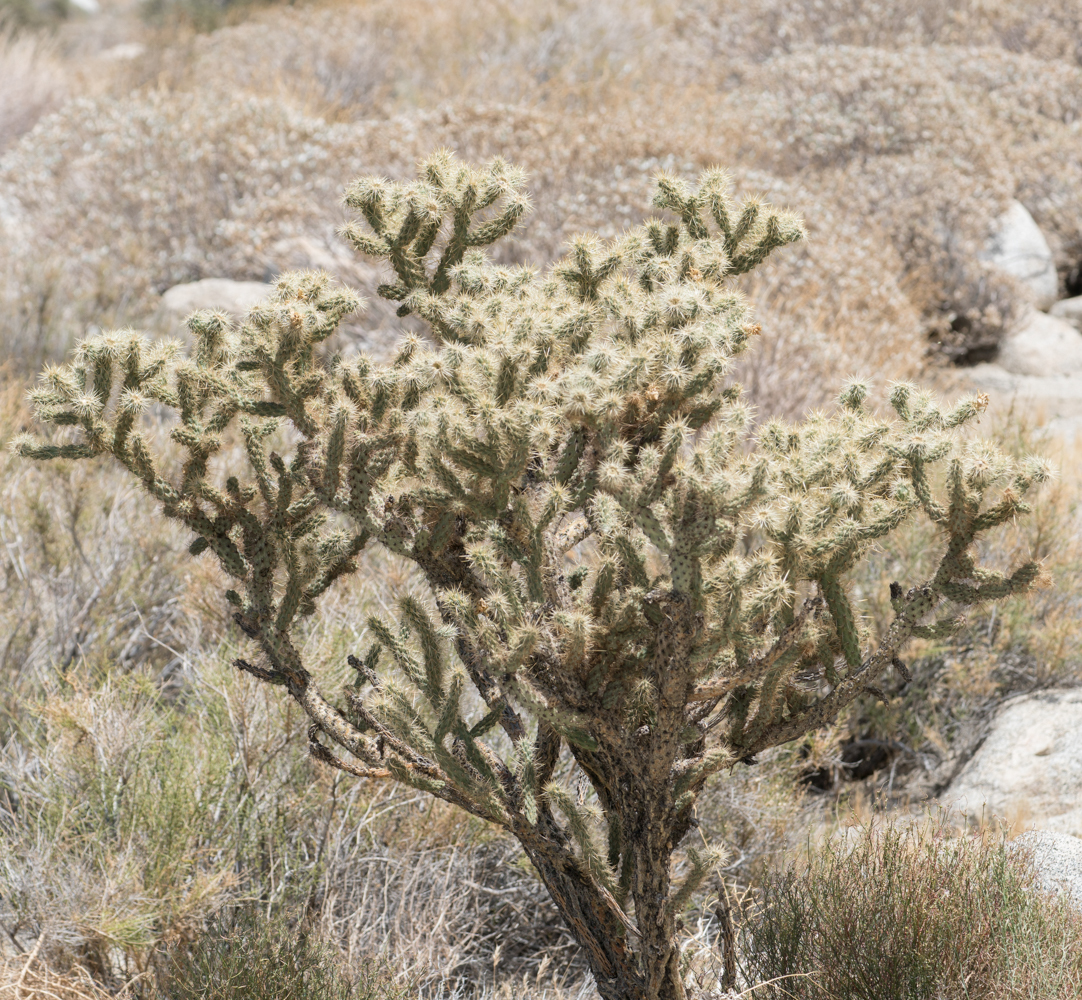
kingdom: Plantae
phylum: Tracheophyta
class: Magnoliopsida
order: Caryophyllales
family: Cactaceae
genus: Cylindropuntia
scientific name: Cylindropuntia echinocarpa
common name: Ground cholla
